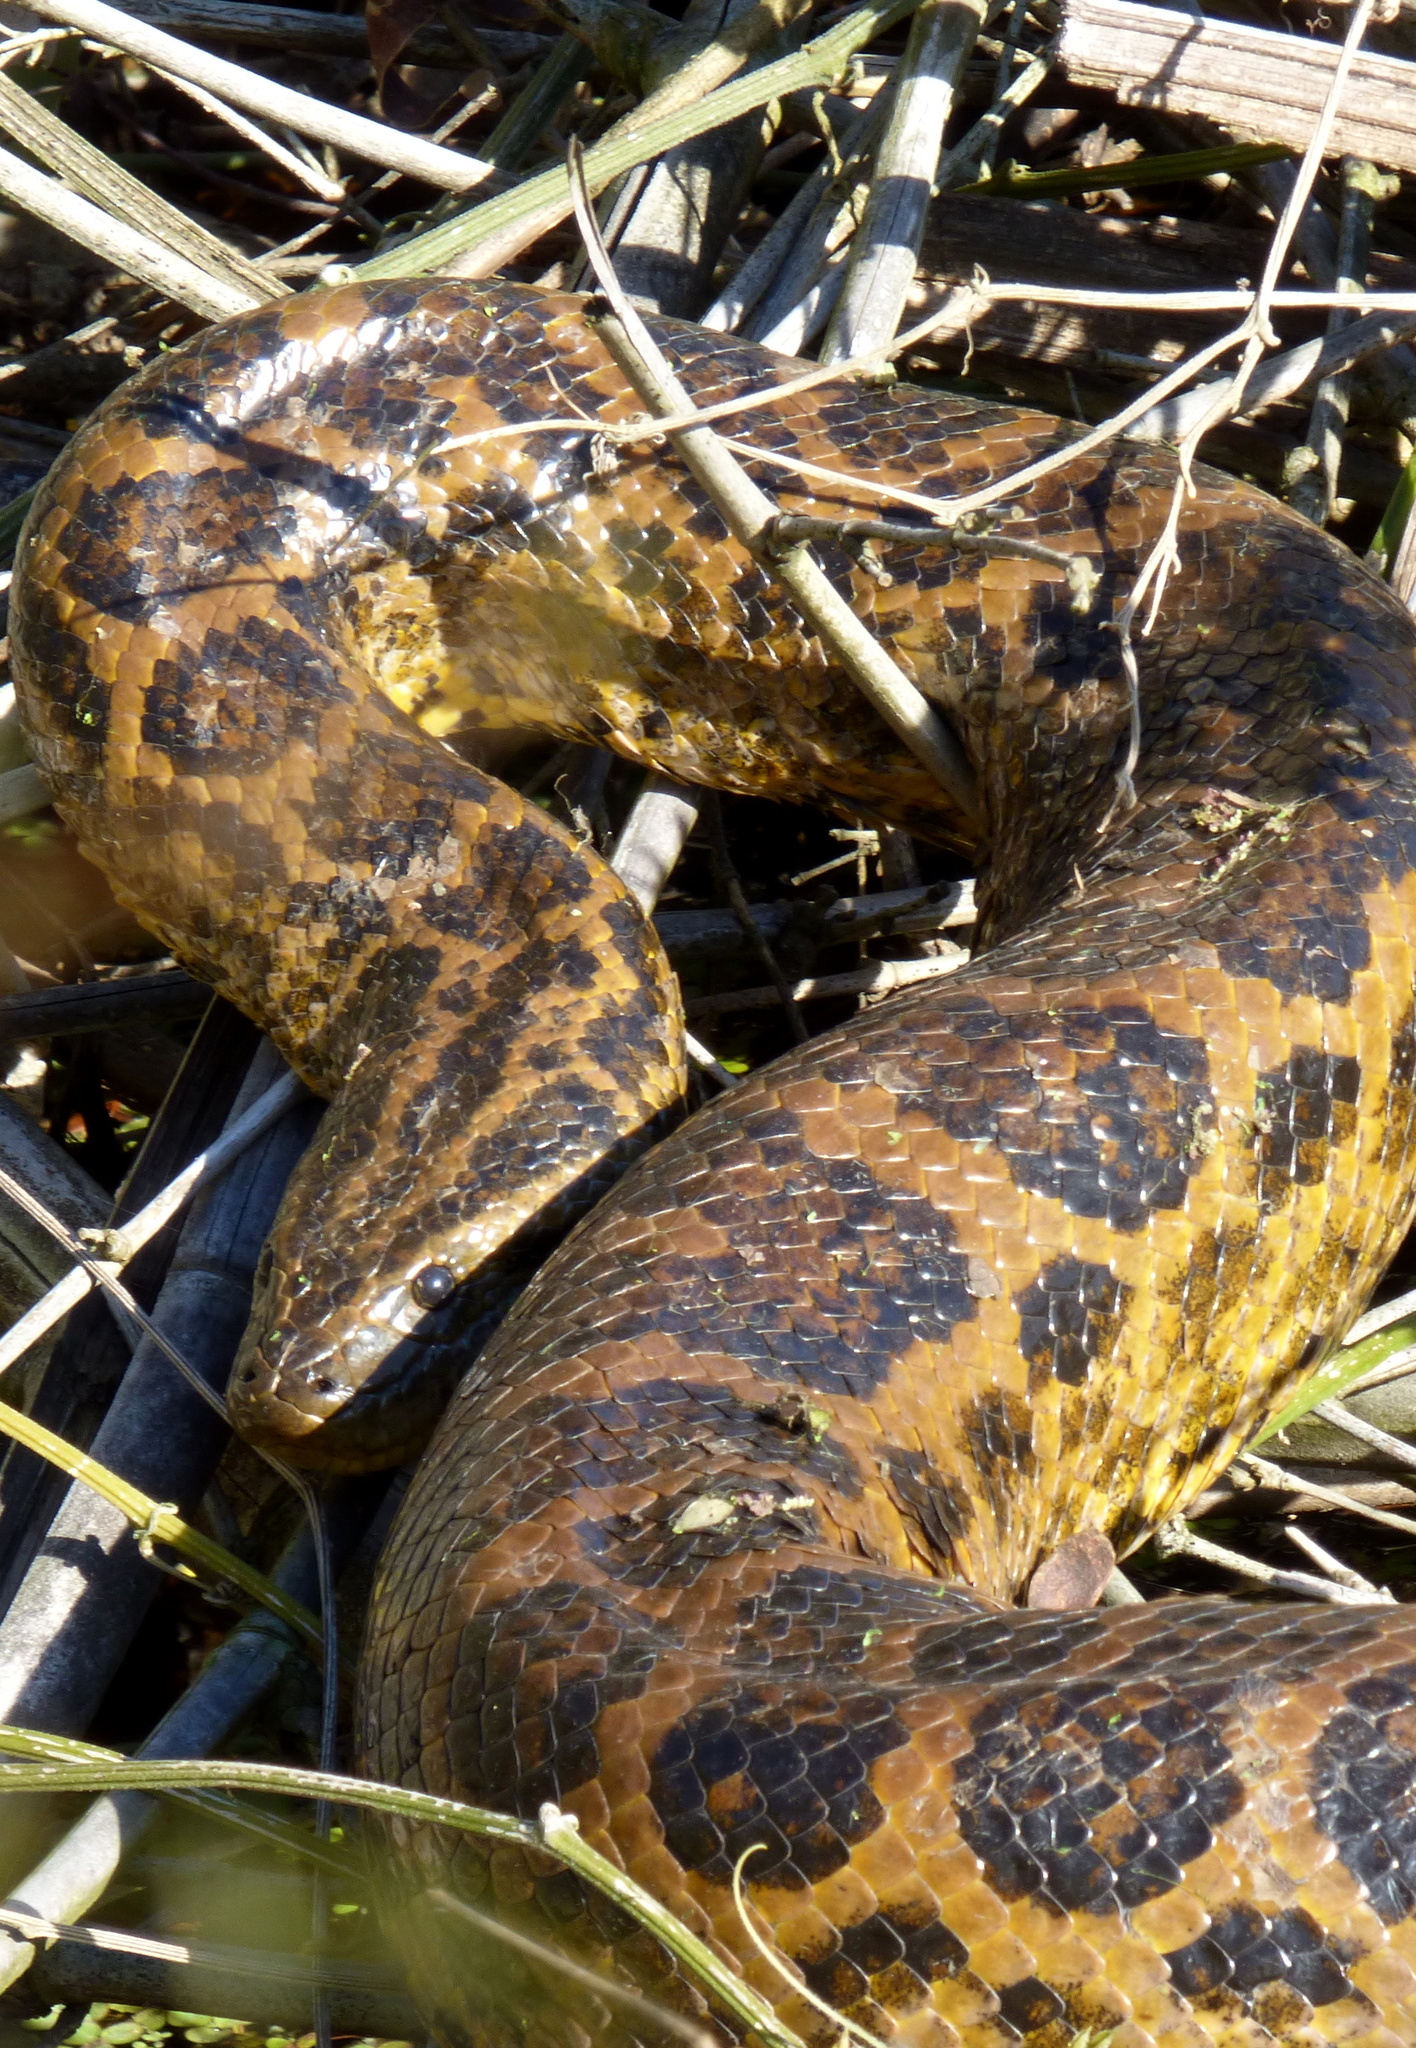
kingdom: Animalia
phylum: Chordata
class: Squamata
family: Boidae
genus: Eunectes
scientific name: Eunectes notaeus
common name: Yellow anaconda
